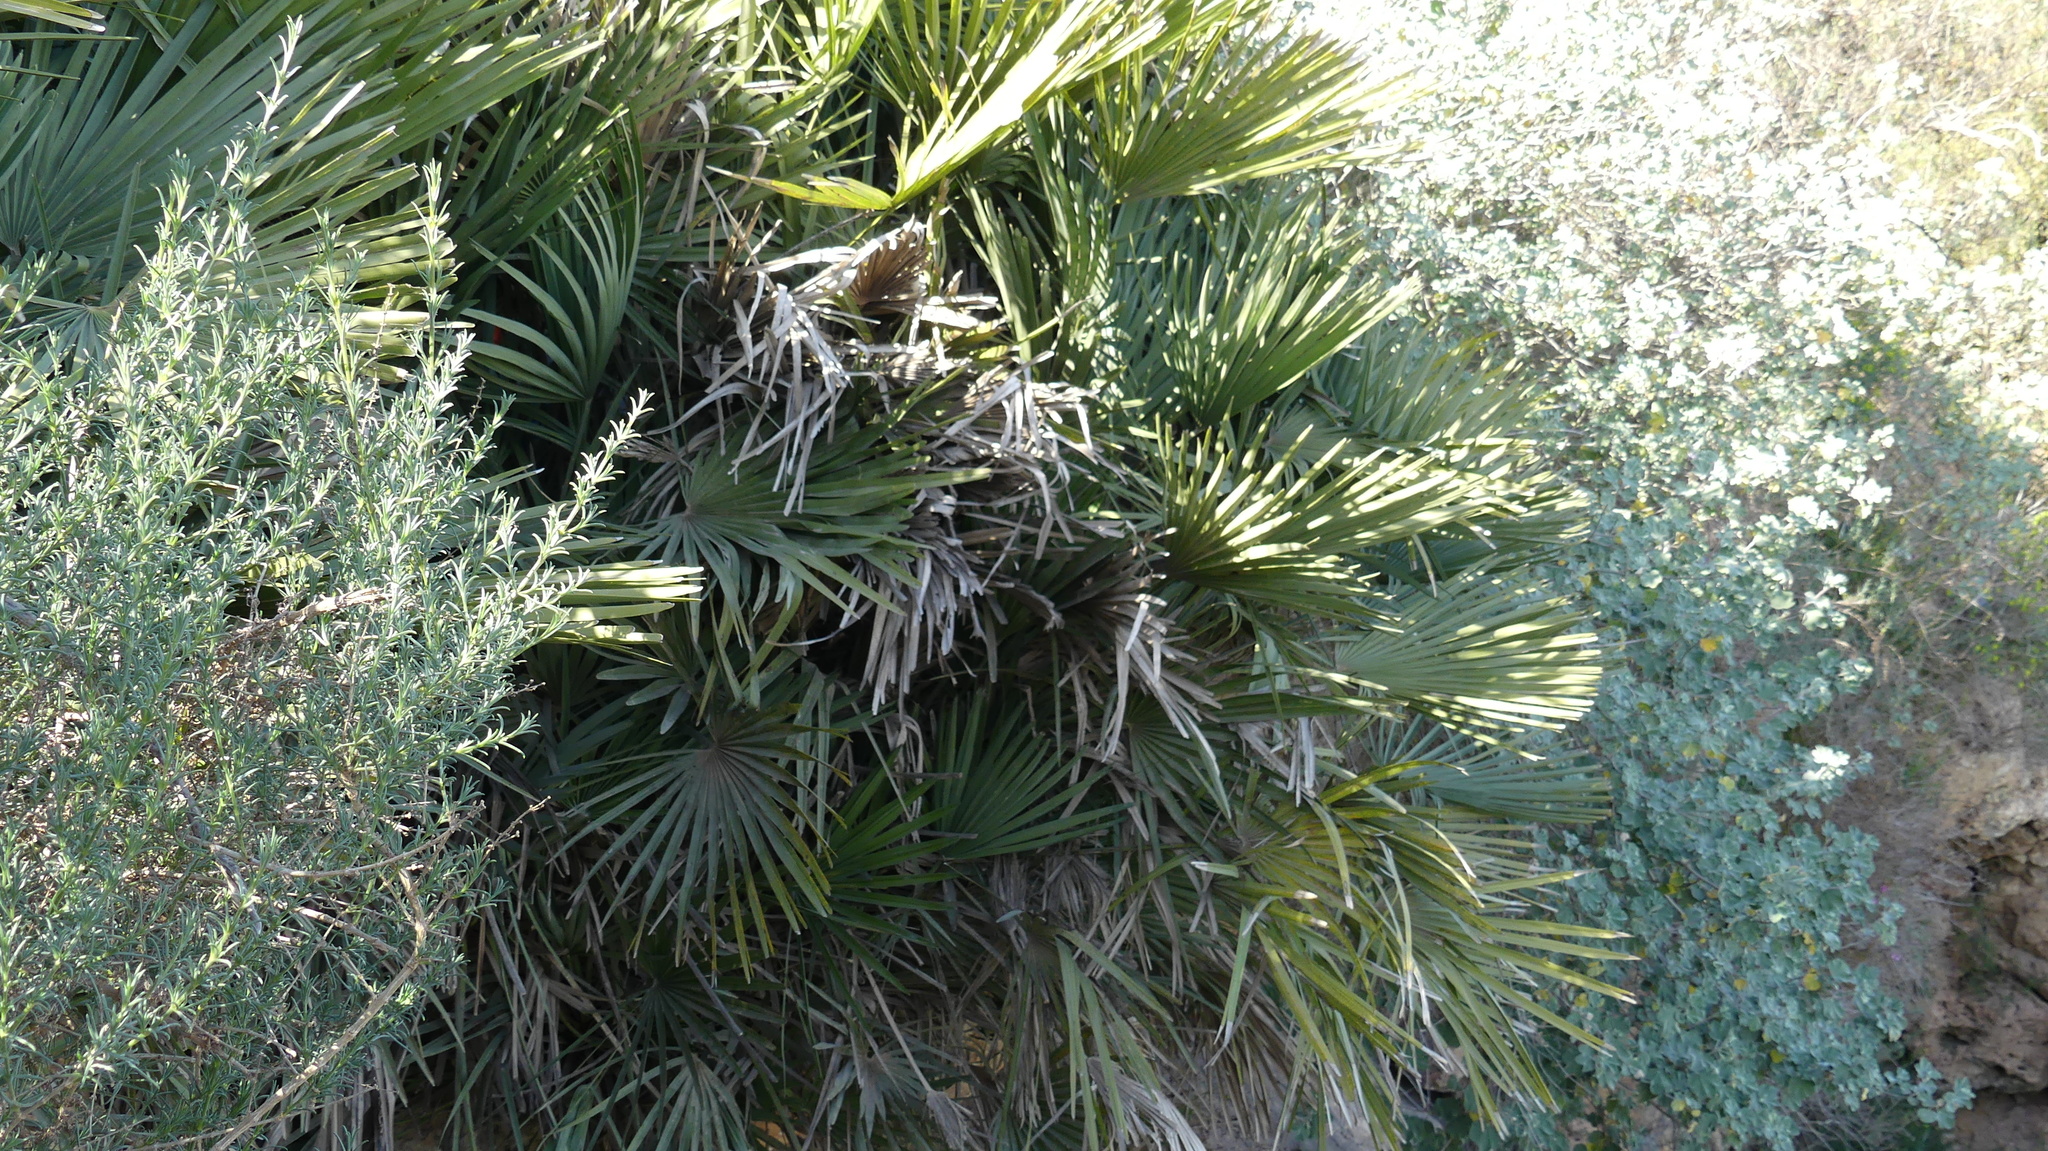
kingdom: Plantae
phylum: Tracheophyta
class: Liliopsida
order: Arecales
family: Arecaceae
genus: Chamaerops
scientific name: Chamaerops humilis
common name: Dwarf fan palm
